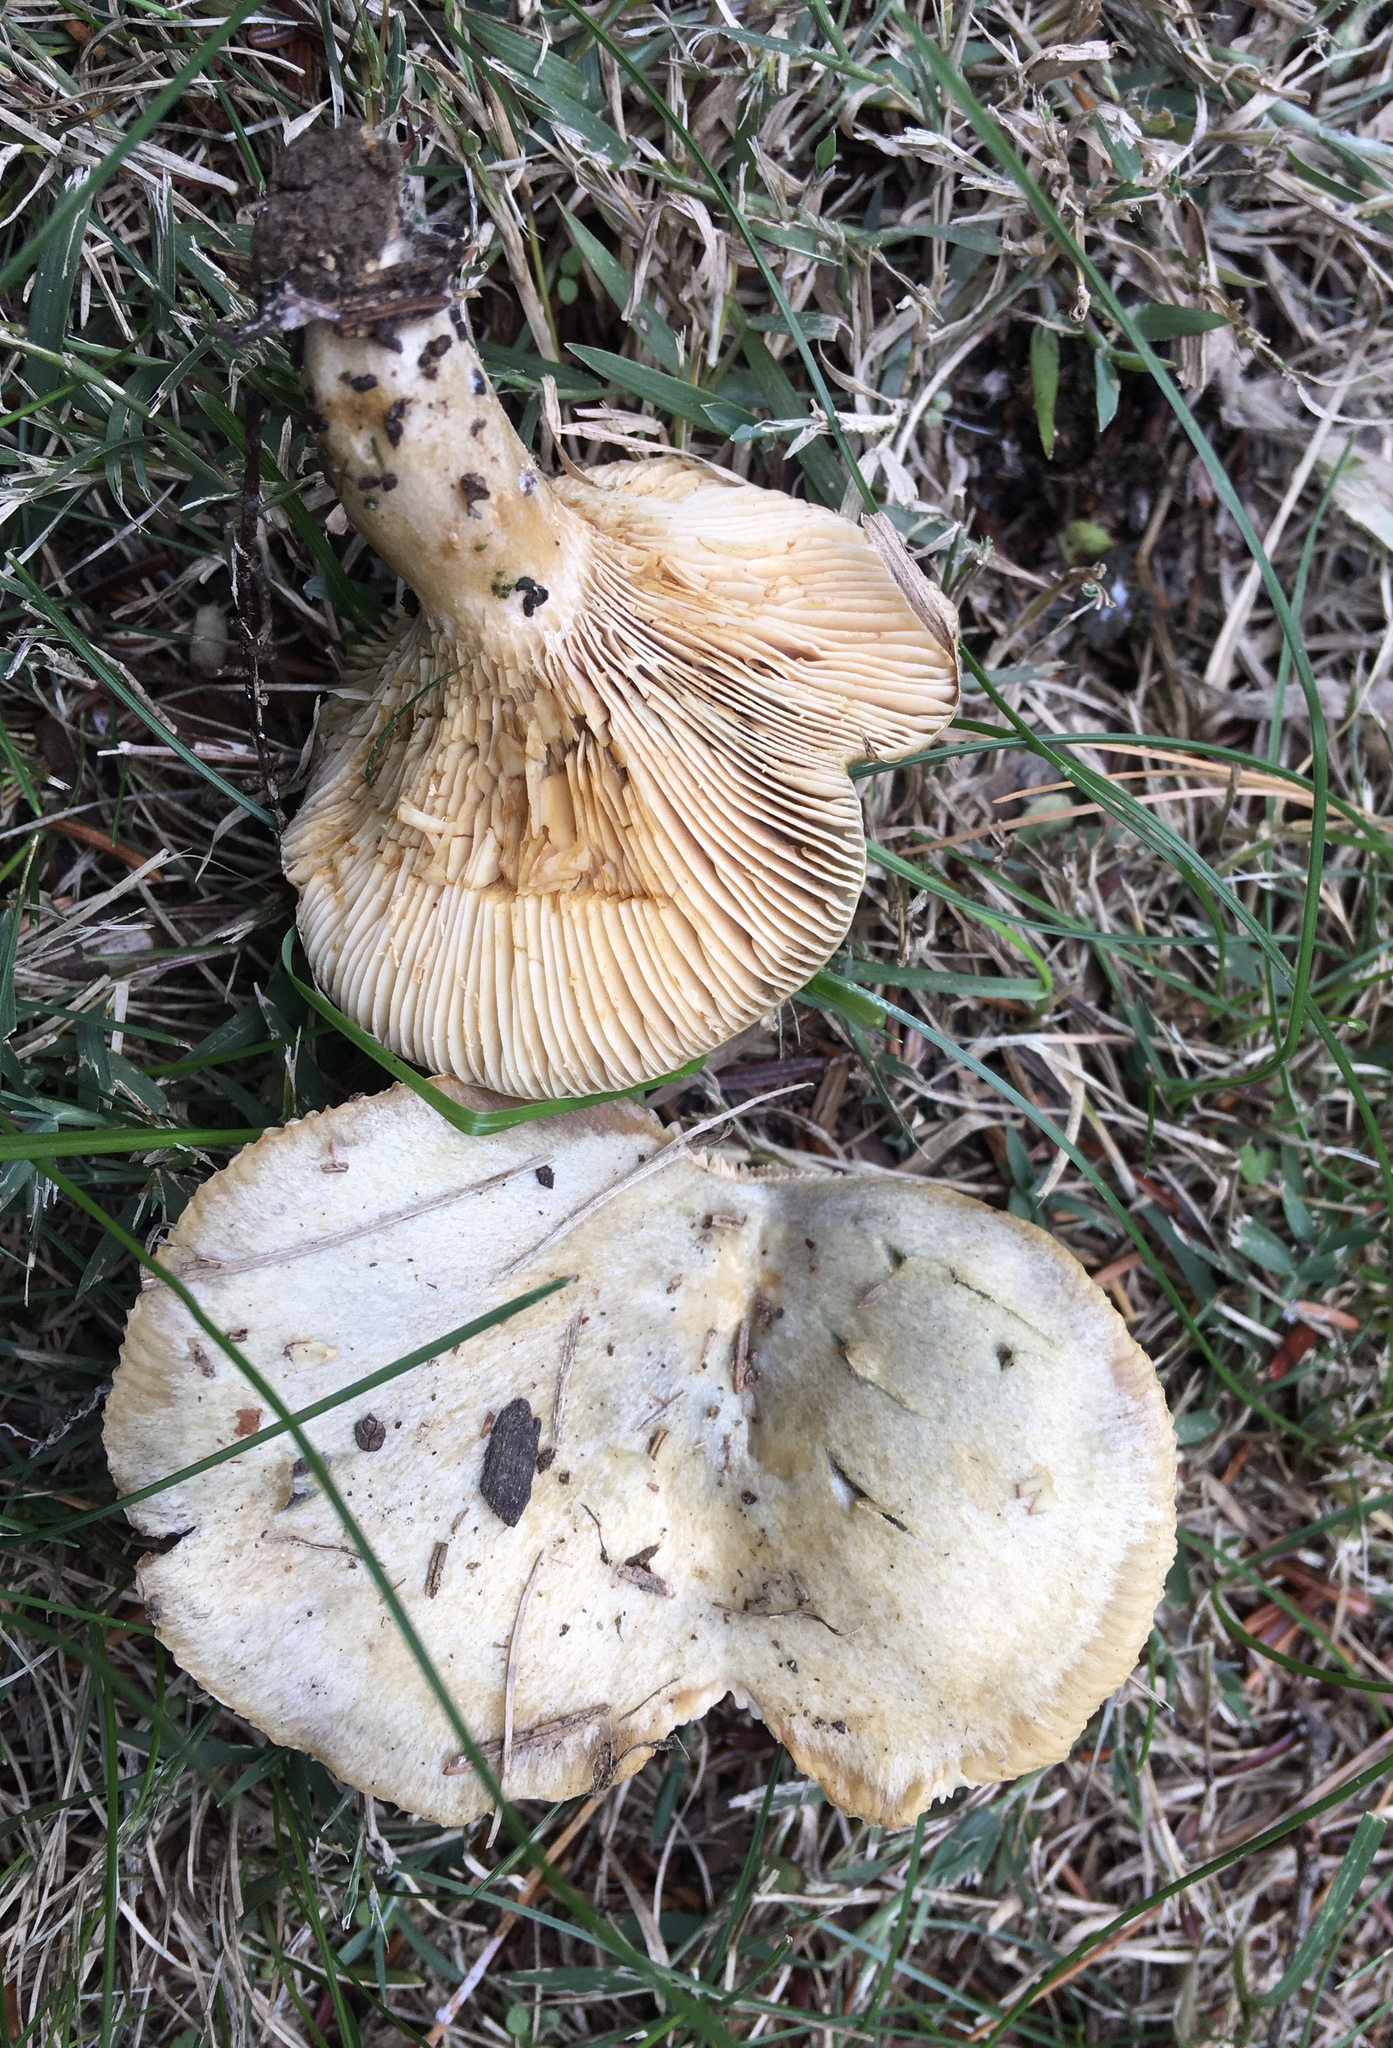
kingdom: Fungi
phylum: Basidiomycota
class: Agaricomycetes
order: Russulales
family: Russulaceae
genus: Lactarius
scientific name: Lactarius chelidonium
